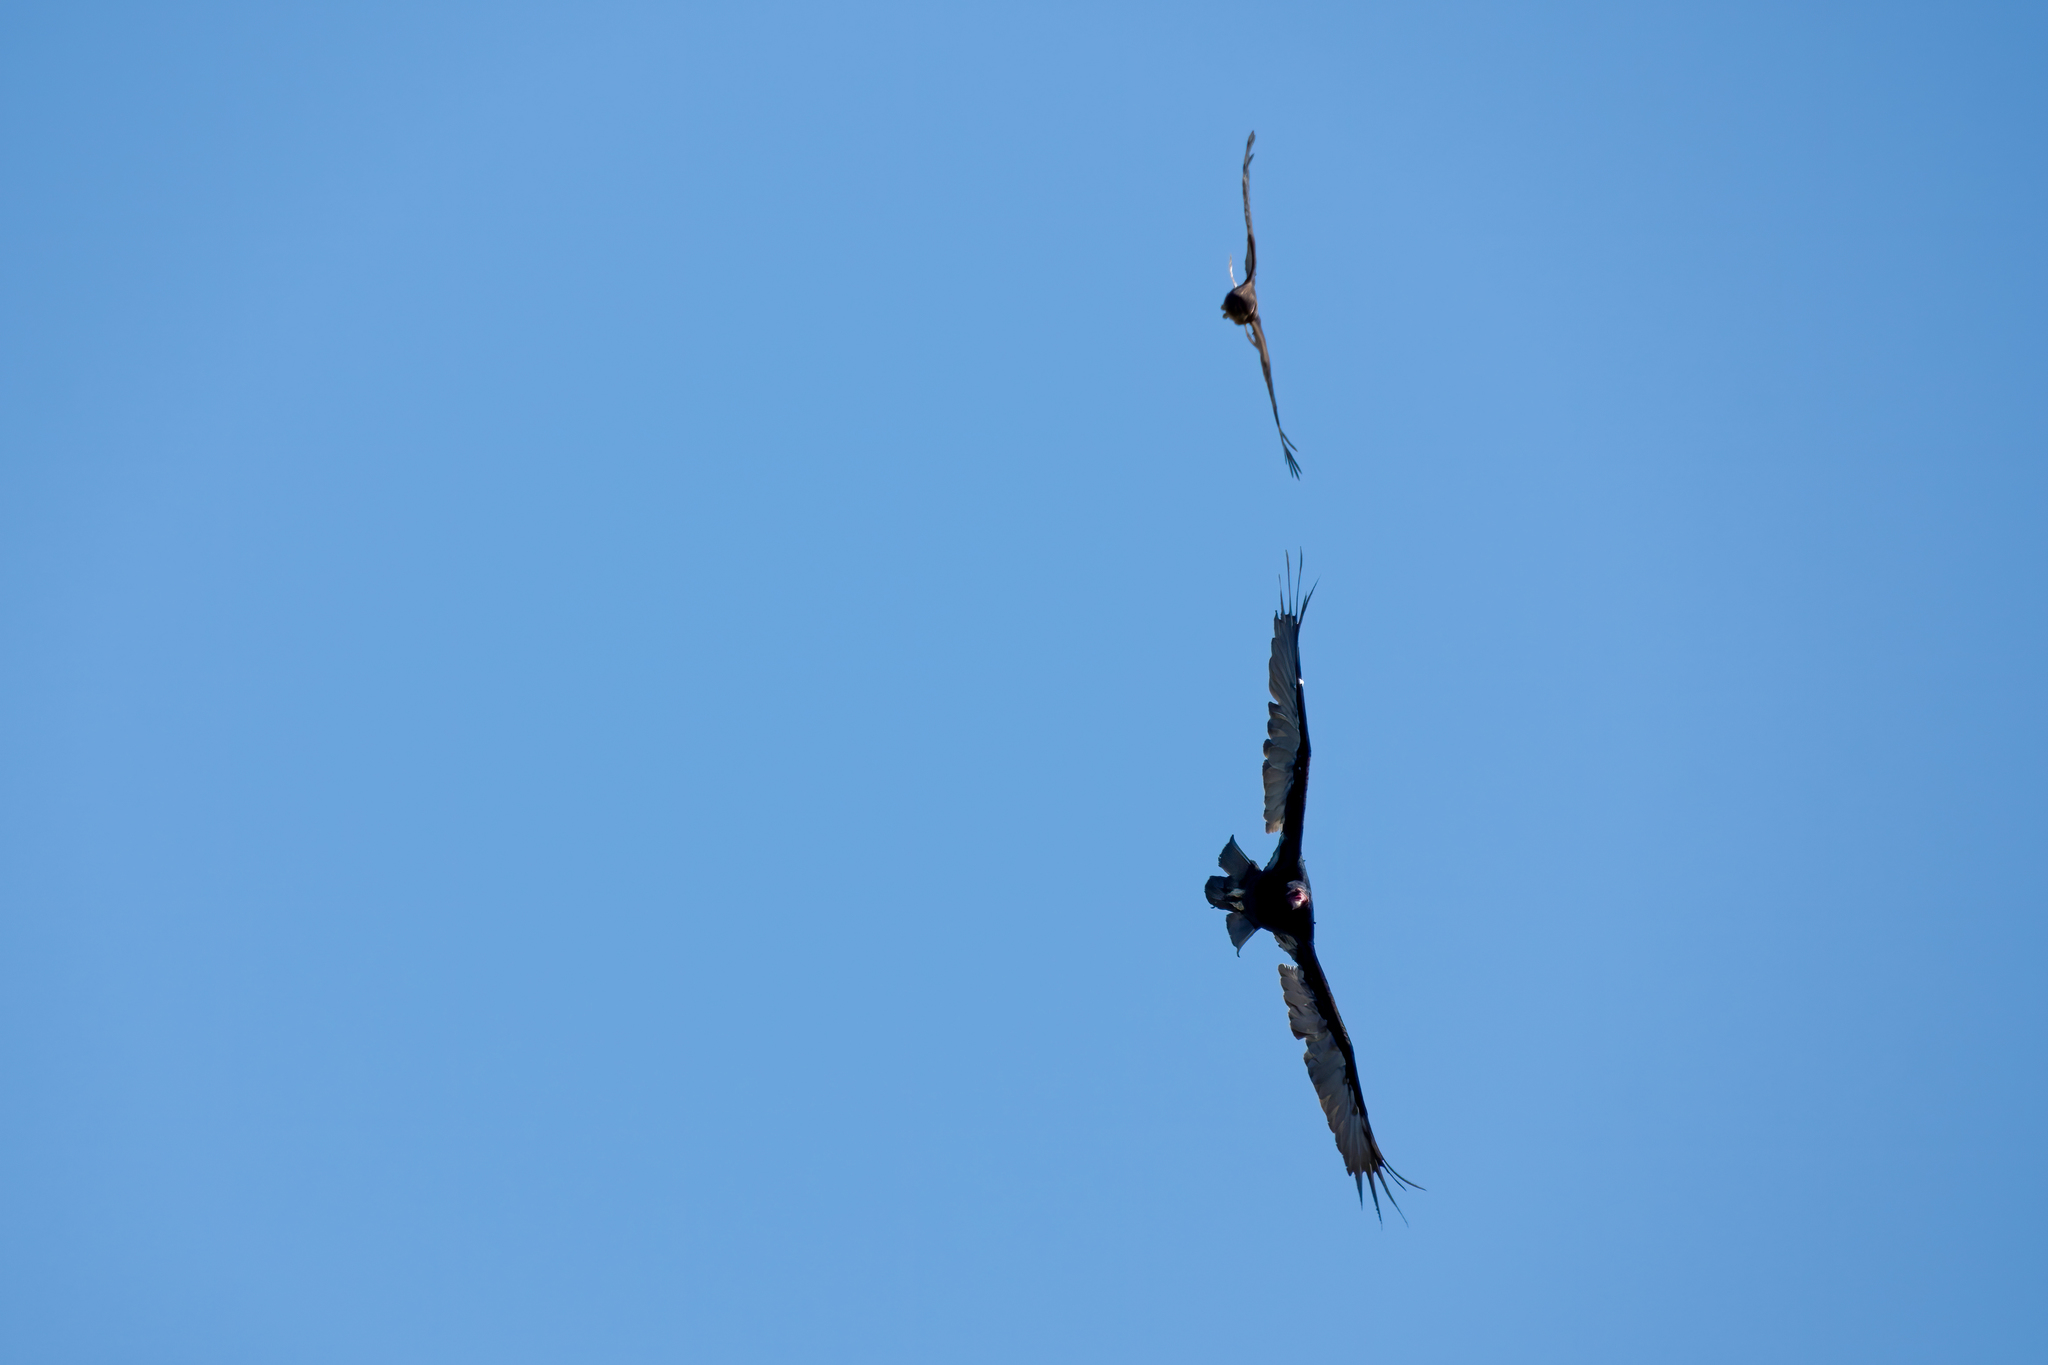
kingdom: Animalia
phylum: Chordata
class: Aves
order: Accipitriformes
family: Accipitridae
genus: Circus
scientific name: Circus cyaneus
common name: Hen harrier
